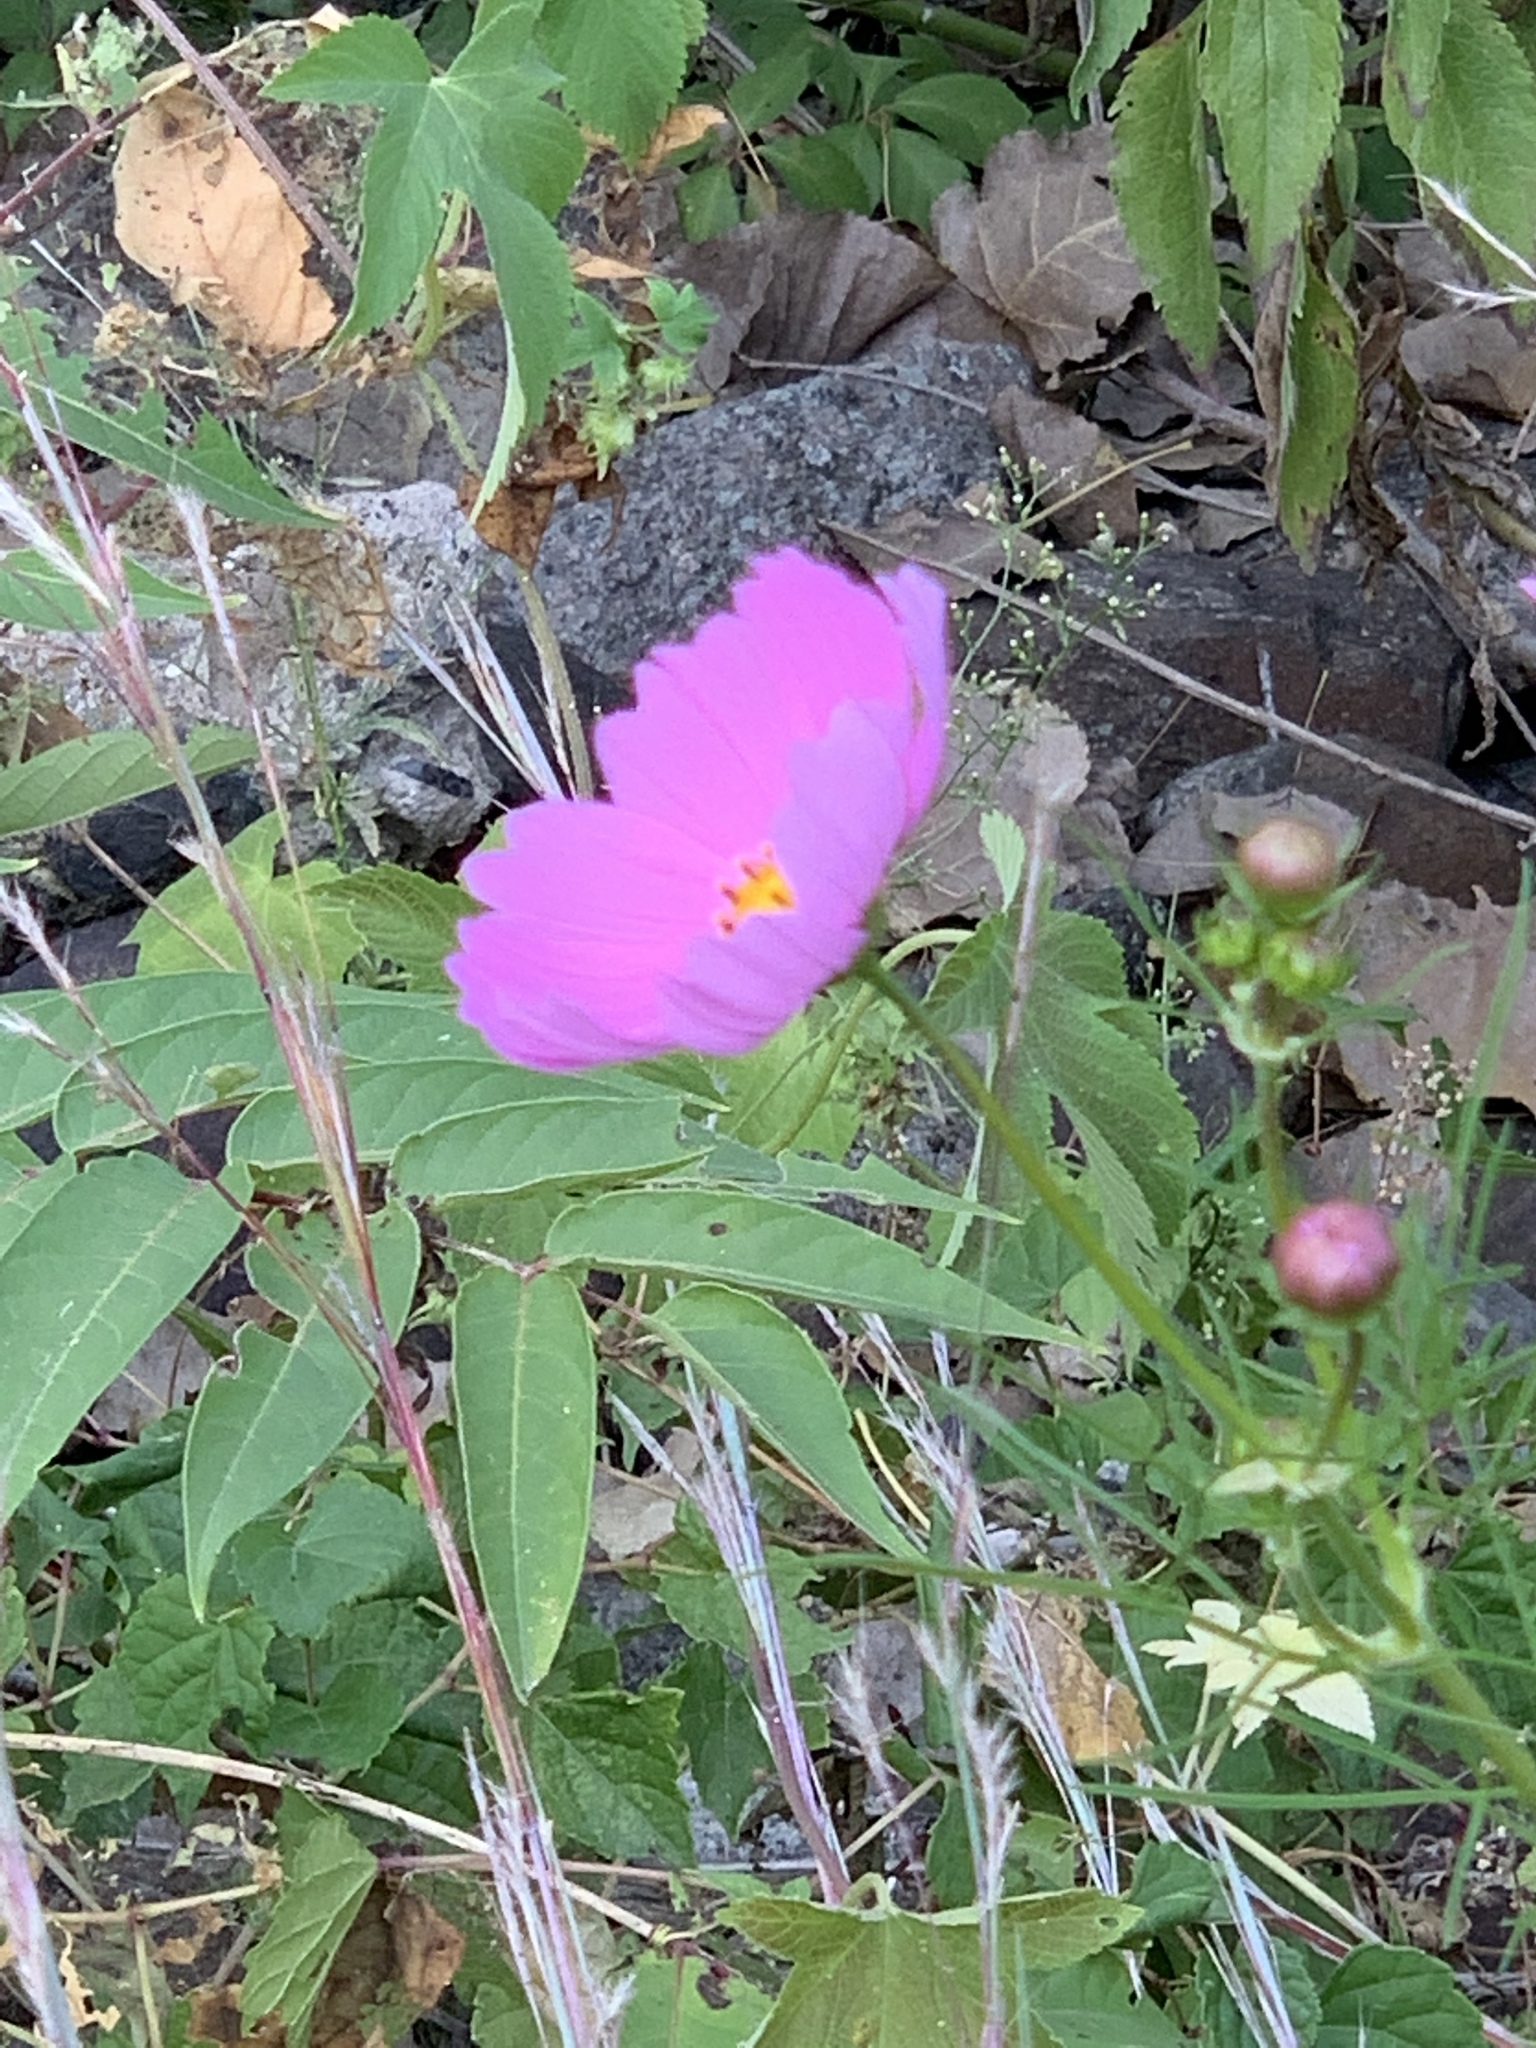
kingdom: Plantae
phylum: Tracheophyta
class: Magnoliopsida
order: Asterales
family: Asteraceae
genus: Cosmos
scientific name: Cosmos bipinnatus
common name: Garden cosmos
